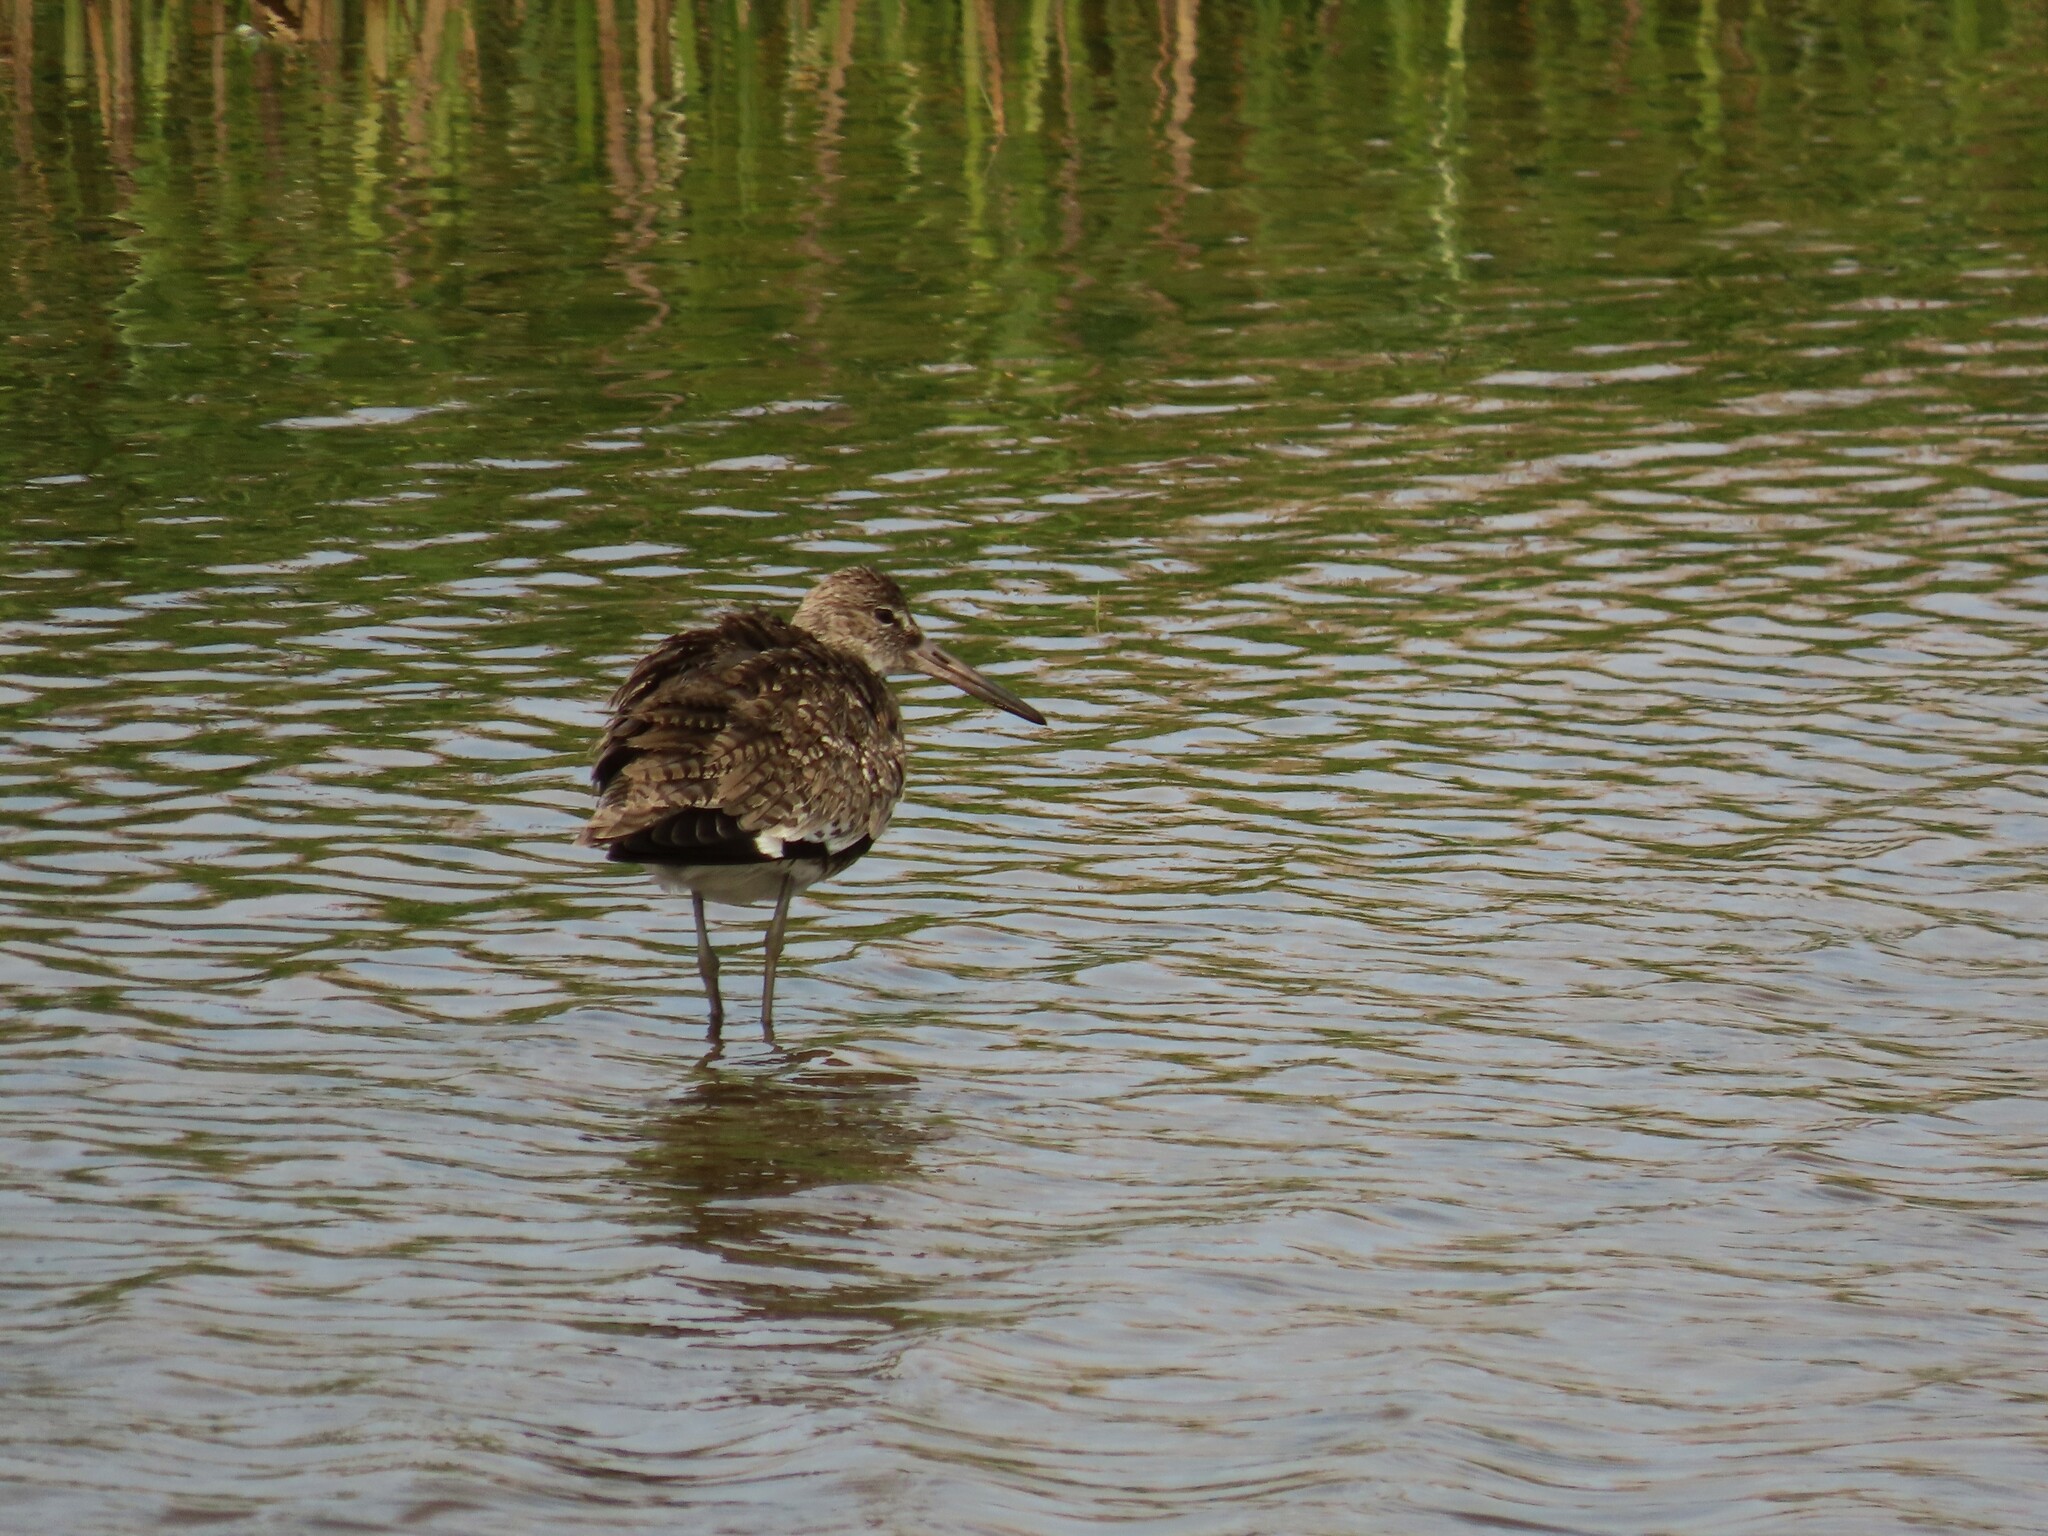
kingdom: Animalia
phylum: Chordata
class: Aves
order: Charadriiformes
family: Scolopacidae
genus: Tringa
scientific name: Tringa semipalmata
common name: Willet
